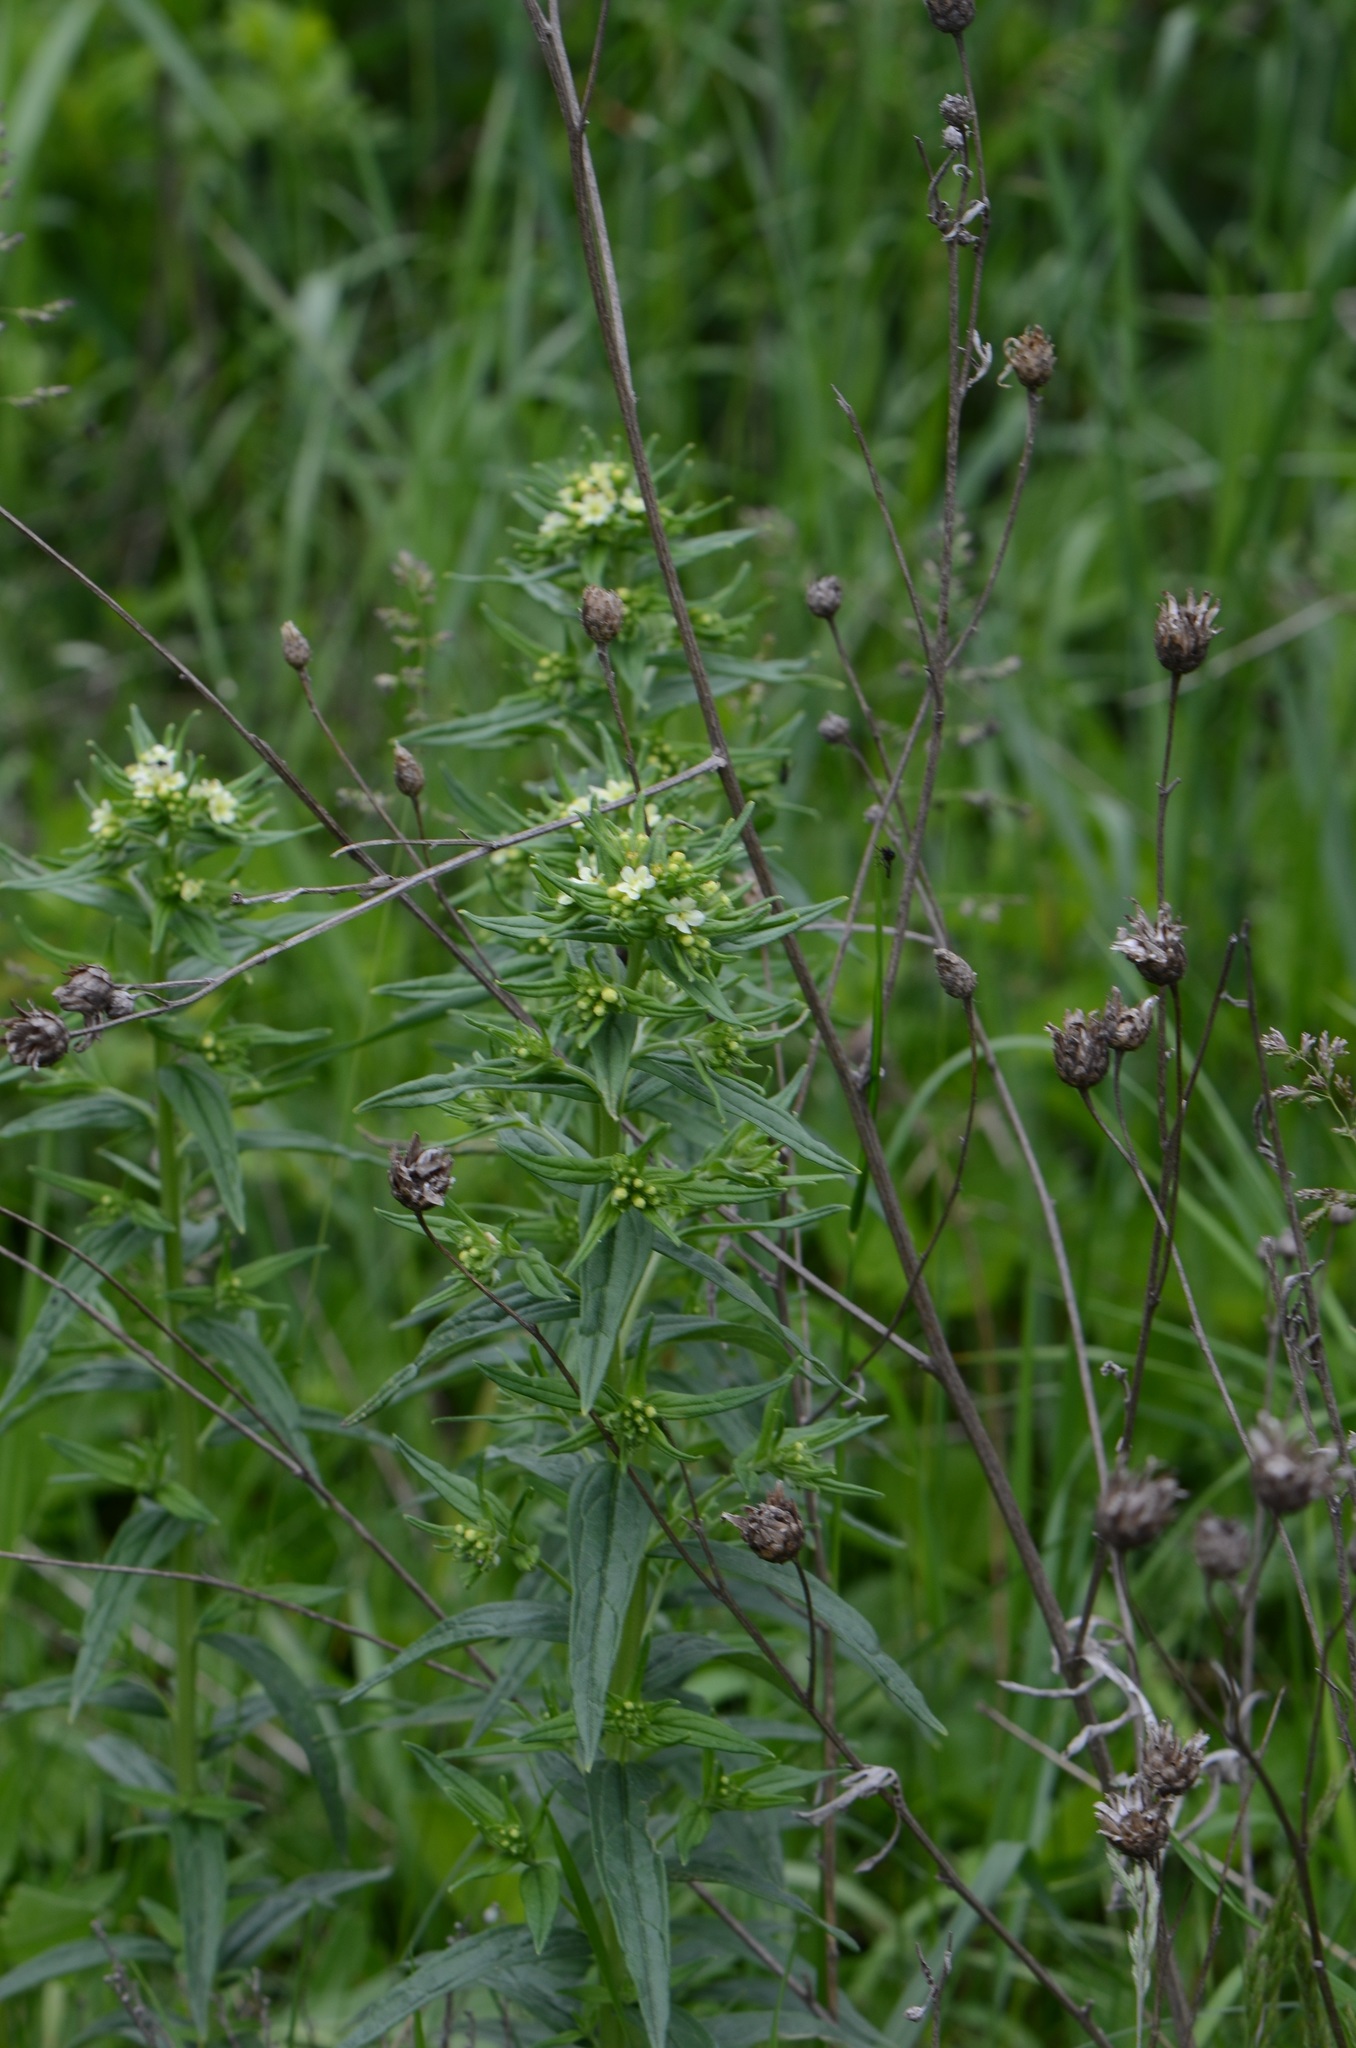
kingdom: Plantae
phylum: Tracheophyta
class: Magnoliopsida
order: Boraginales
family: Boraginaceae
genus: Lithospermum
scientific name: Lithospermum officinale
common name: Common gromwell
